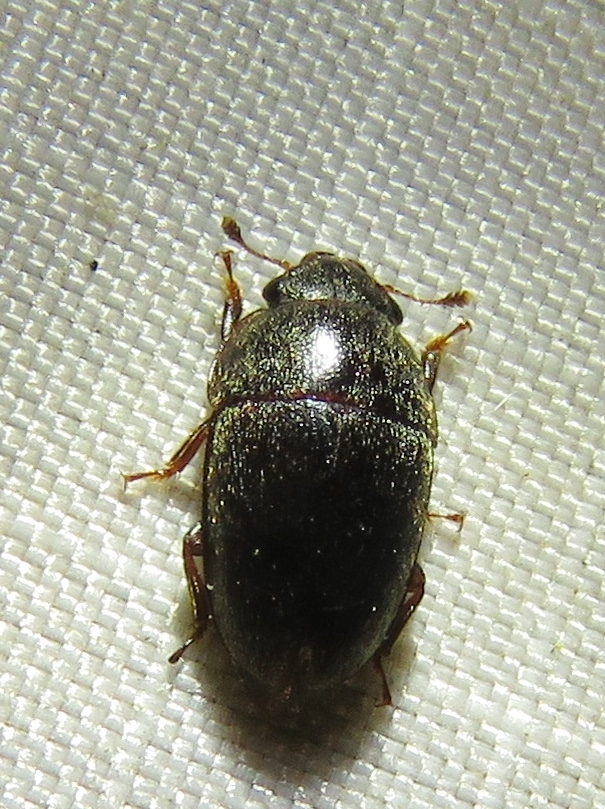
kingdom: Animalia
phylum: Arthropoda
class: Insecta
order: Coleoptera
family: Nitidulidae
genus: Cryptarcha
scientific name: Cryptarcha ampla
